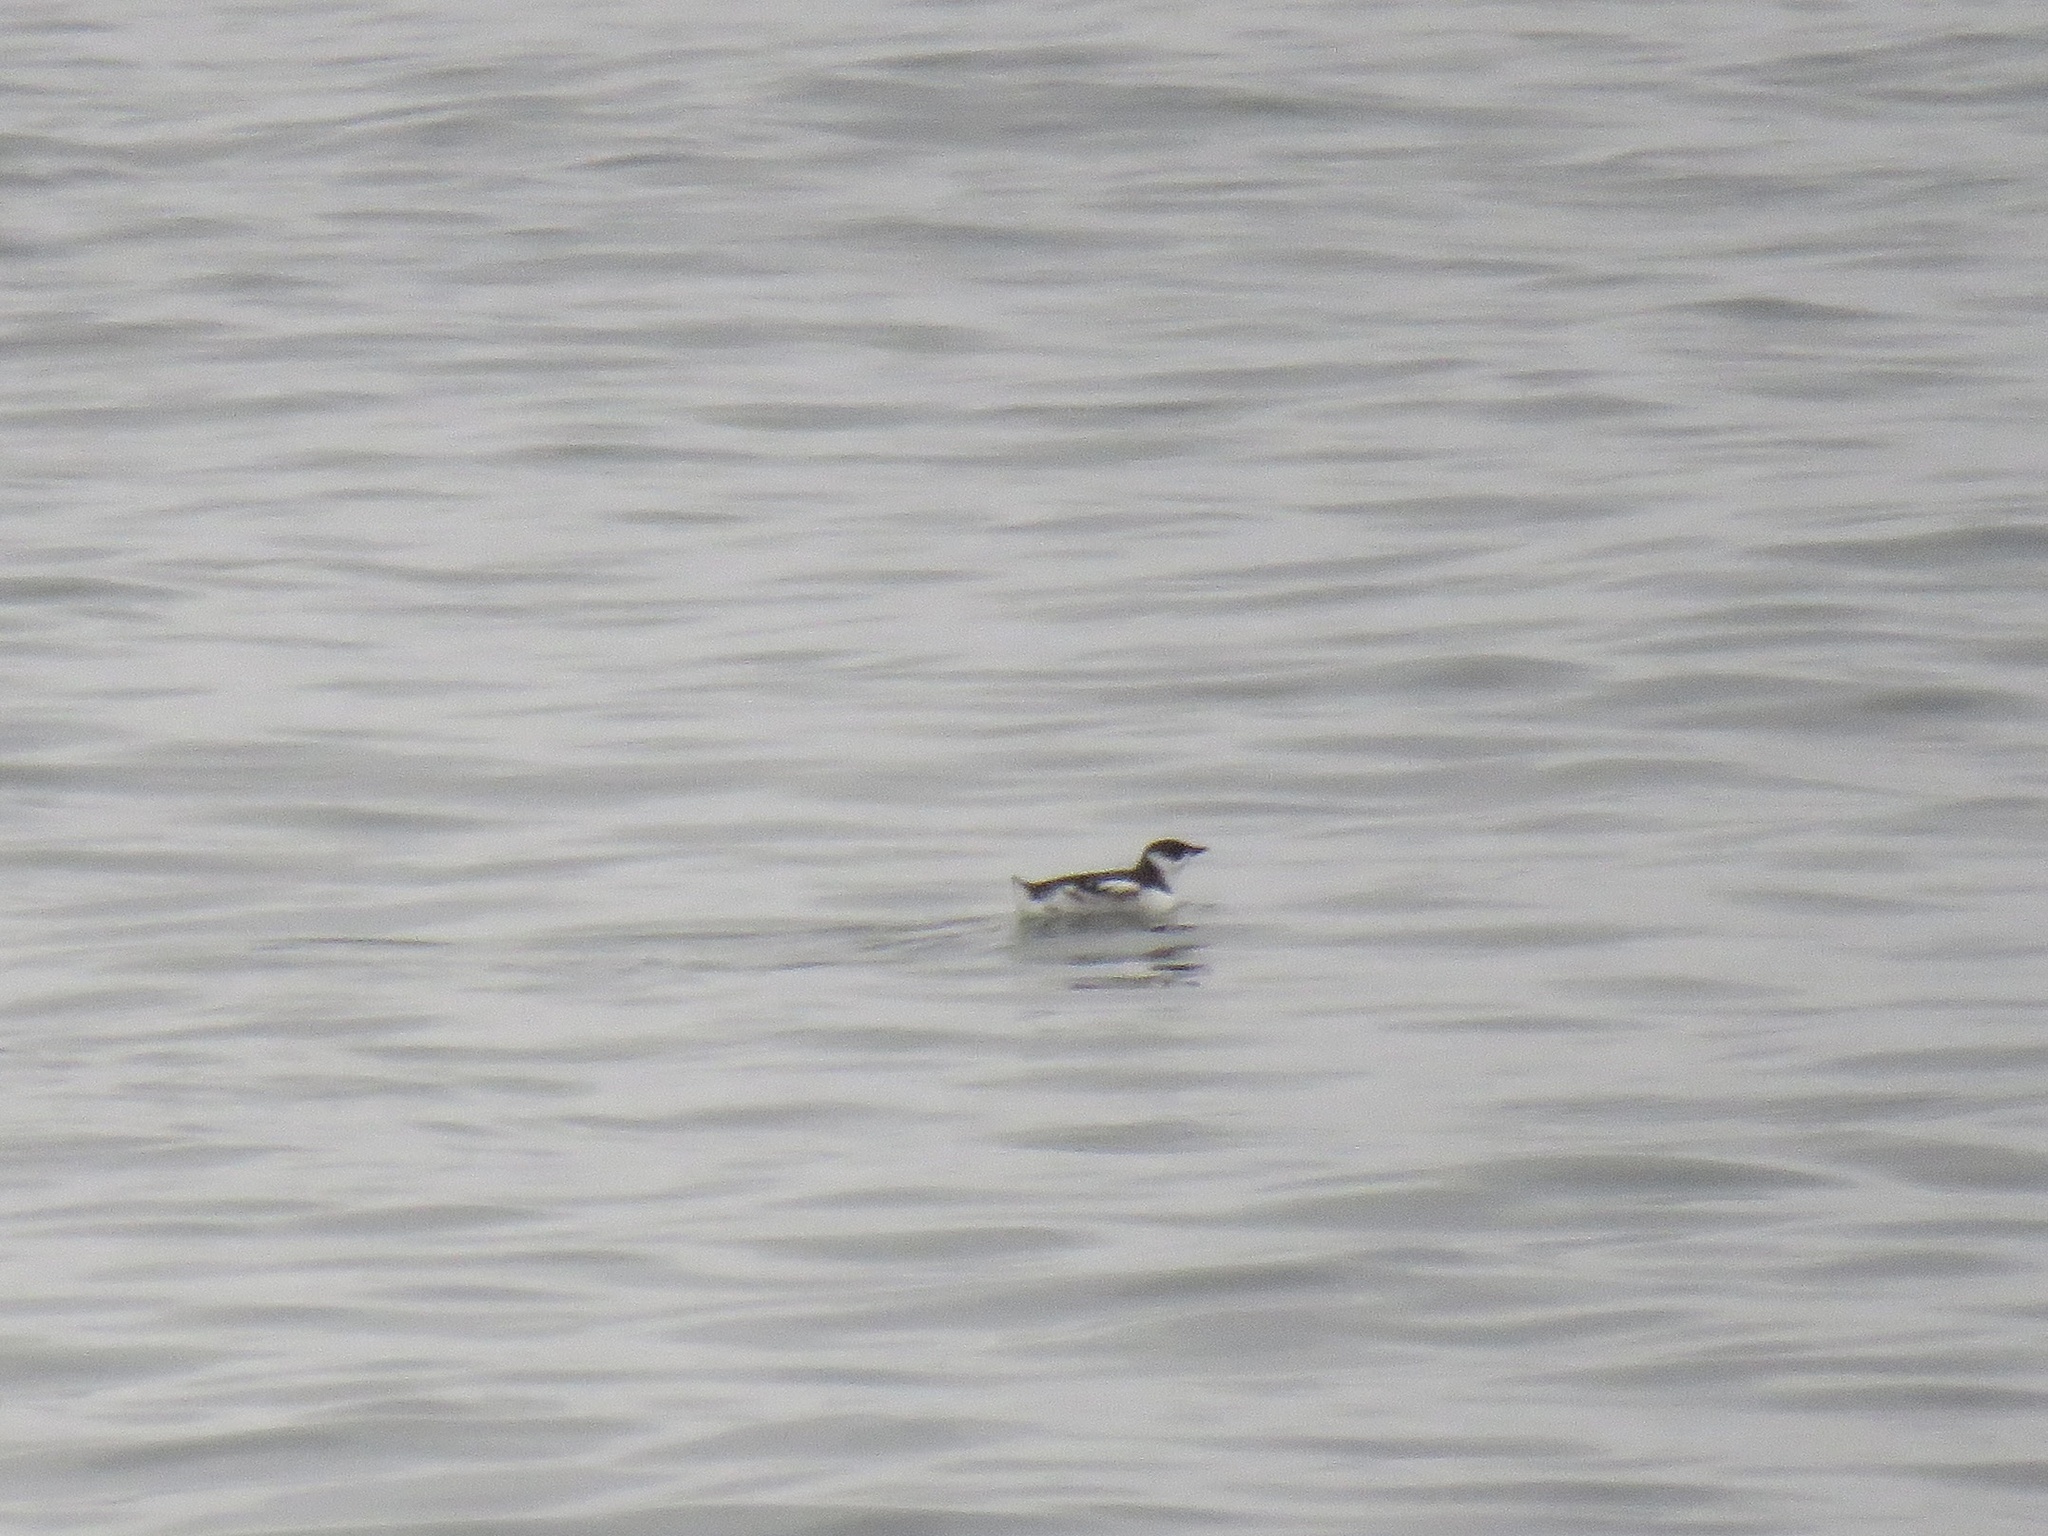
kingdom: Animalia
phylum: Chordata
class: Aves
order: Charadriiformes
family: Alcidae
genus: Brachyramphus
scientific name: Brachyramphus marmoratus
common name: Marbled murrelet
